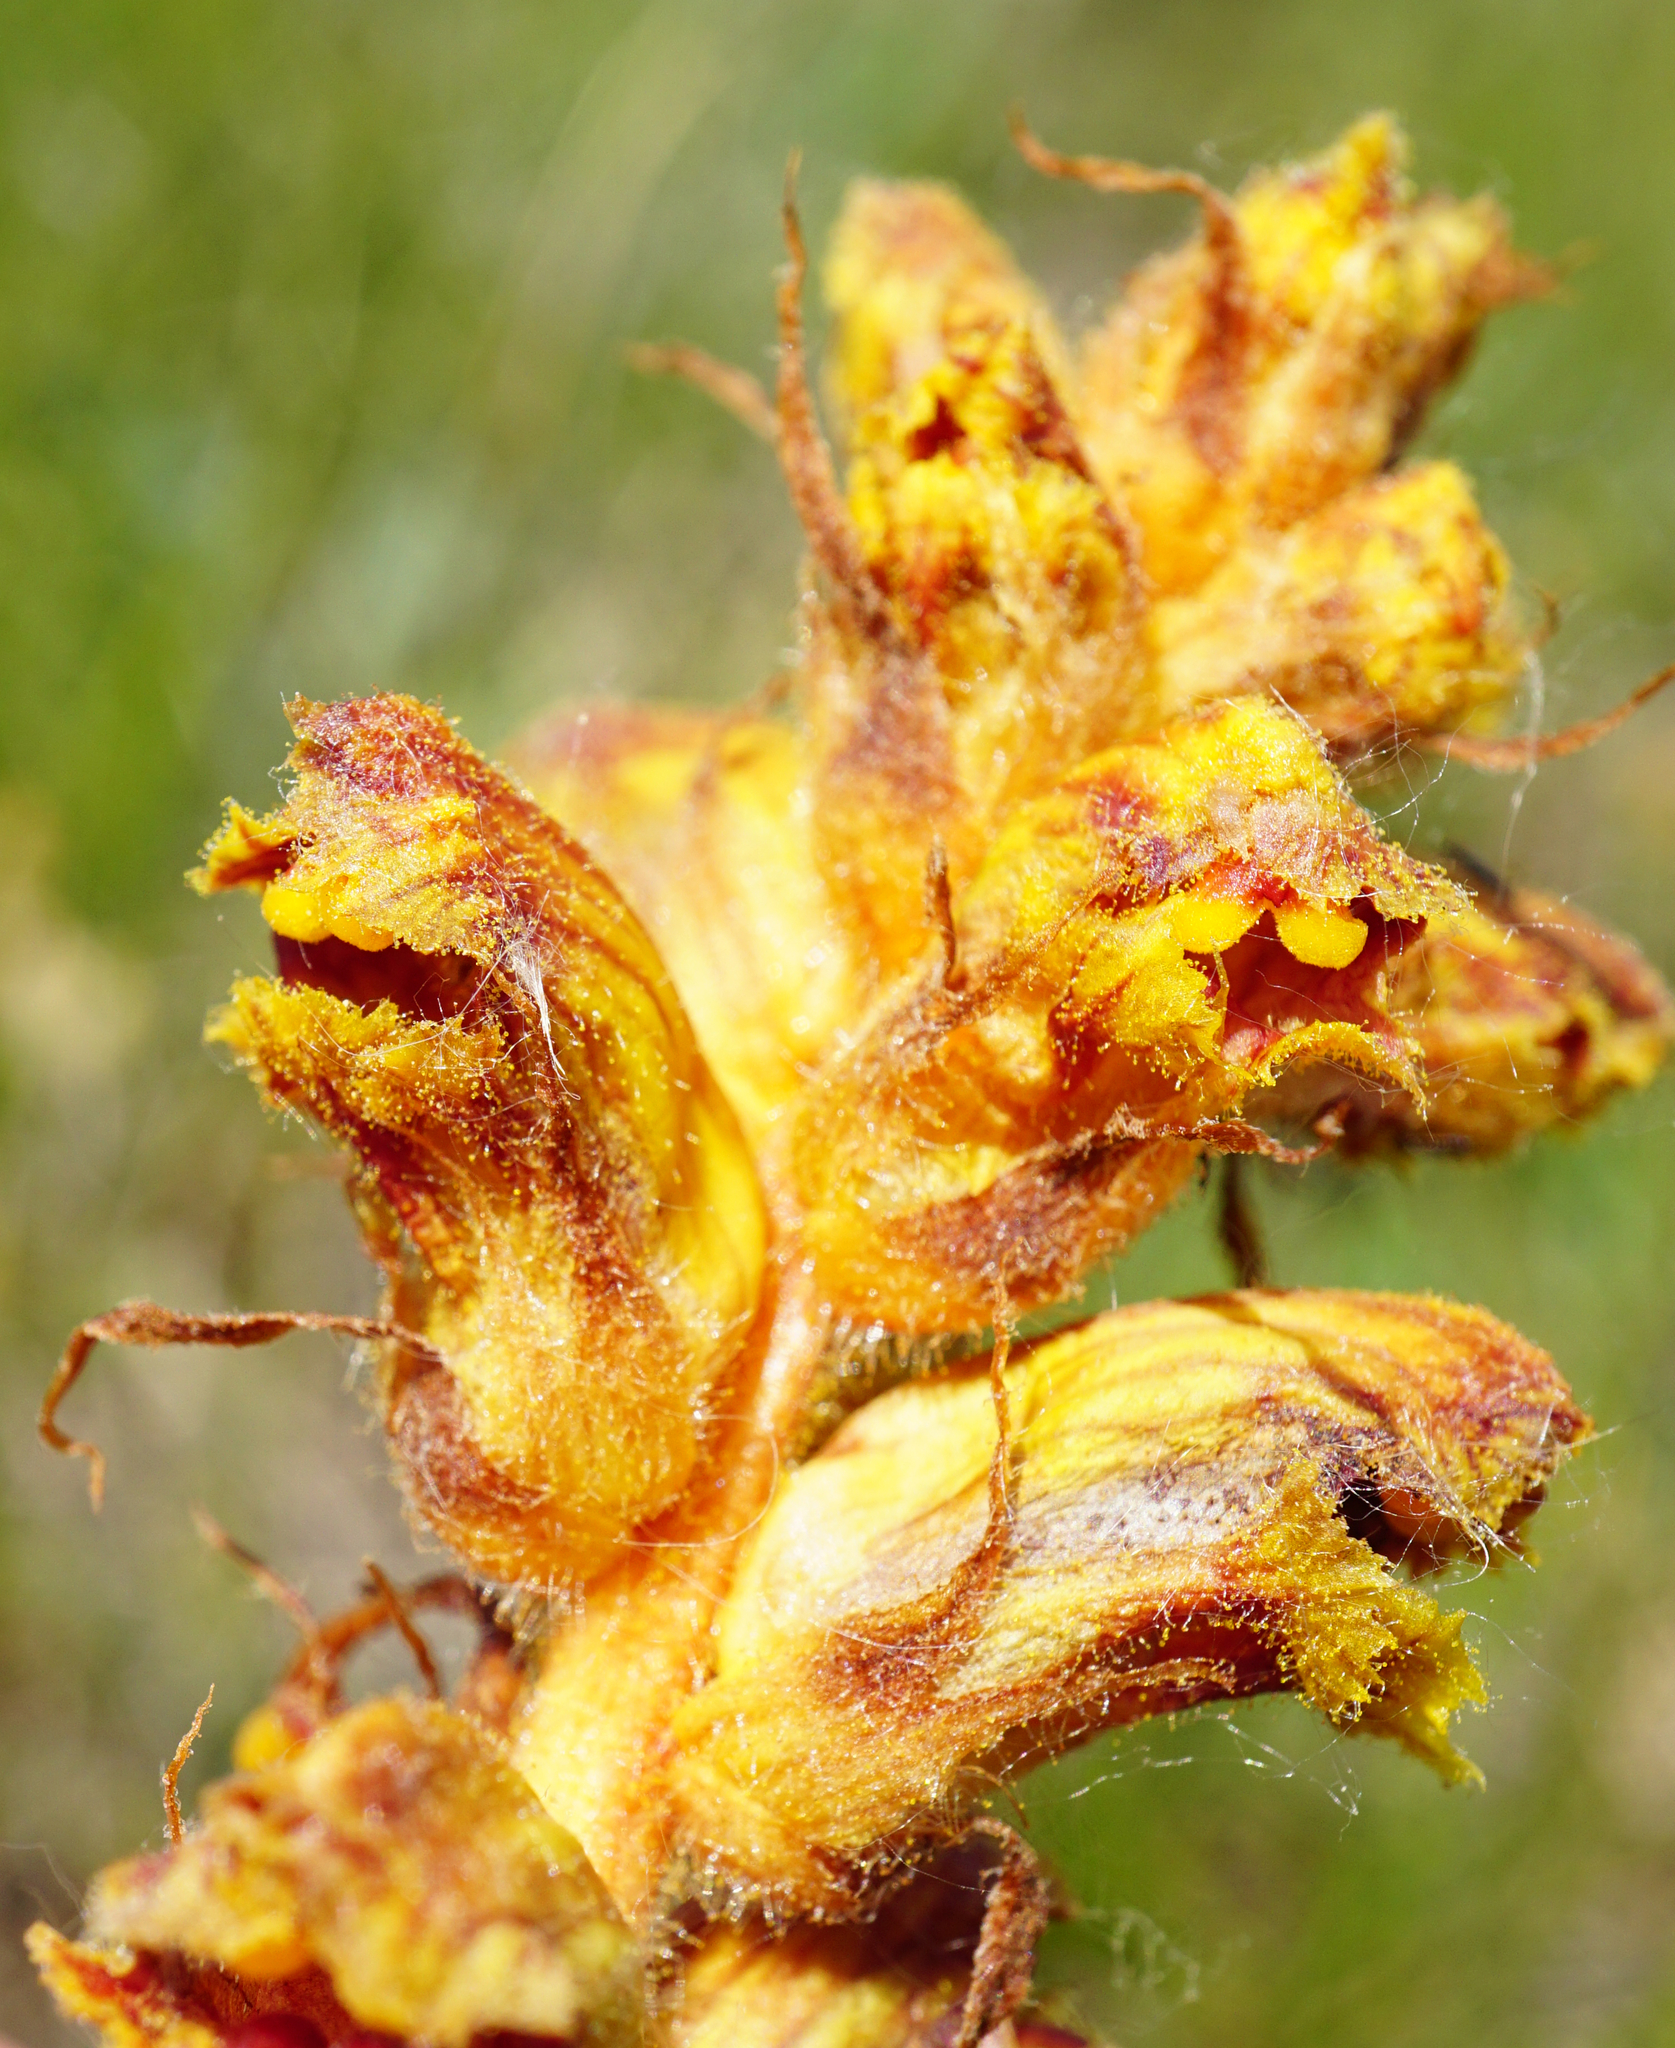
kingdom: Plantae
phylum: Tracheophyta
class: Magnoliopsida
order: Lamiales
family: Orobanchaceae
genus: Orobanche
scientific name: Orobanche gracilis
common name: Slender broomrape
